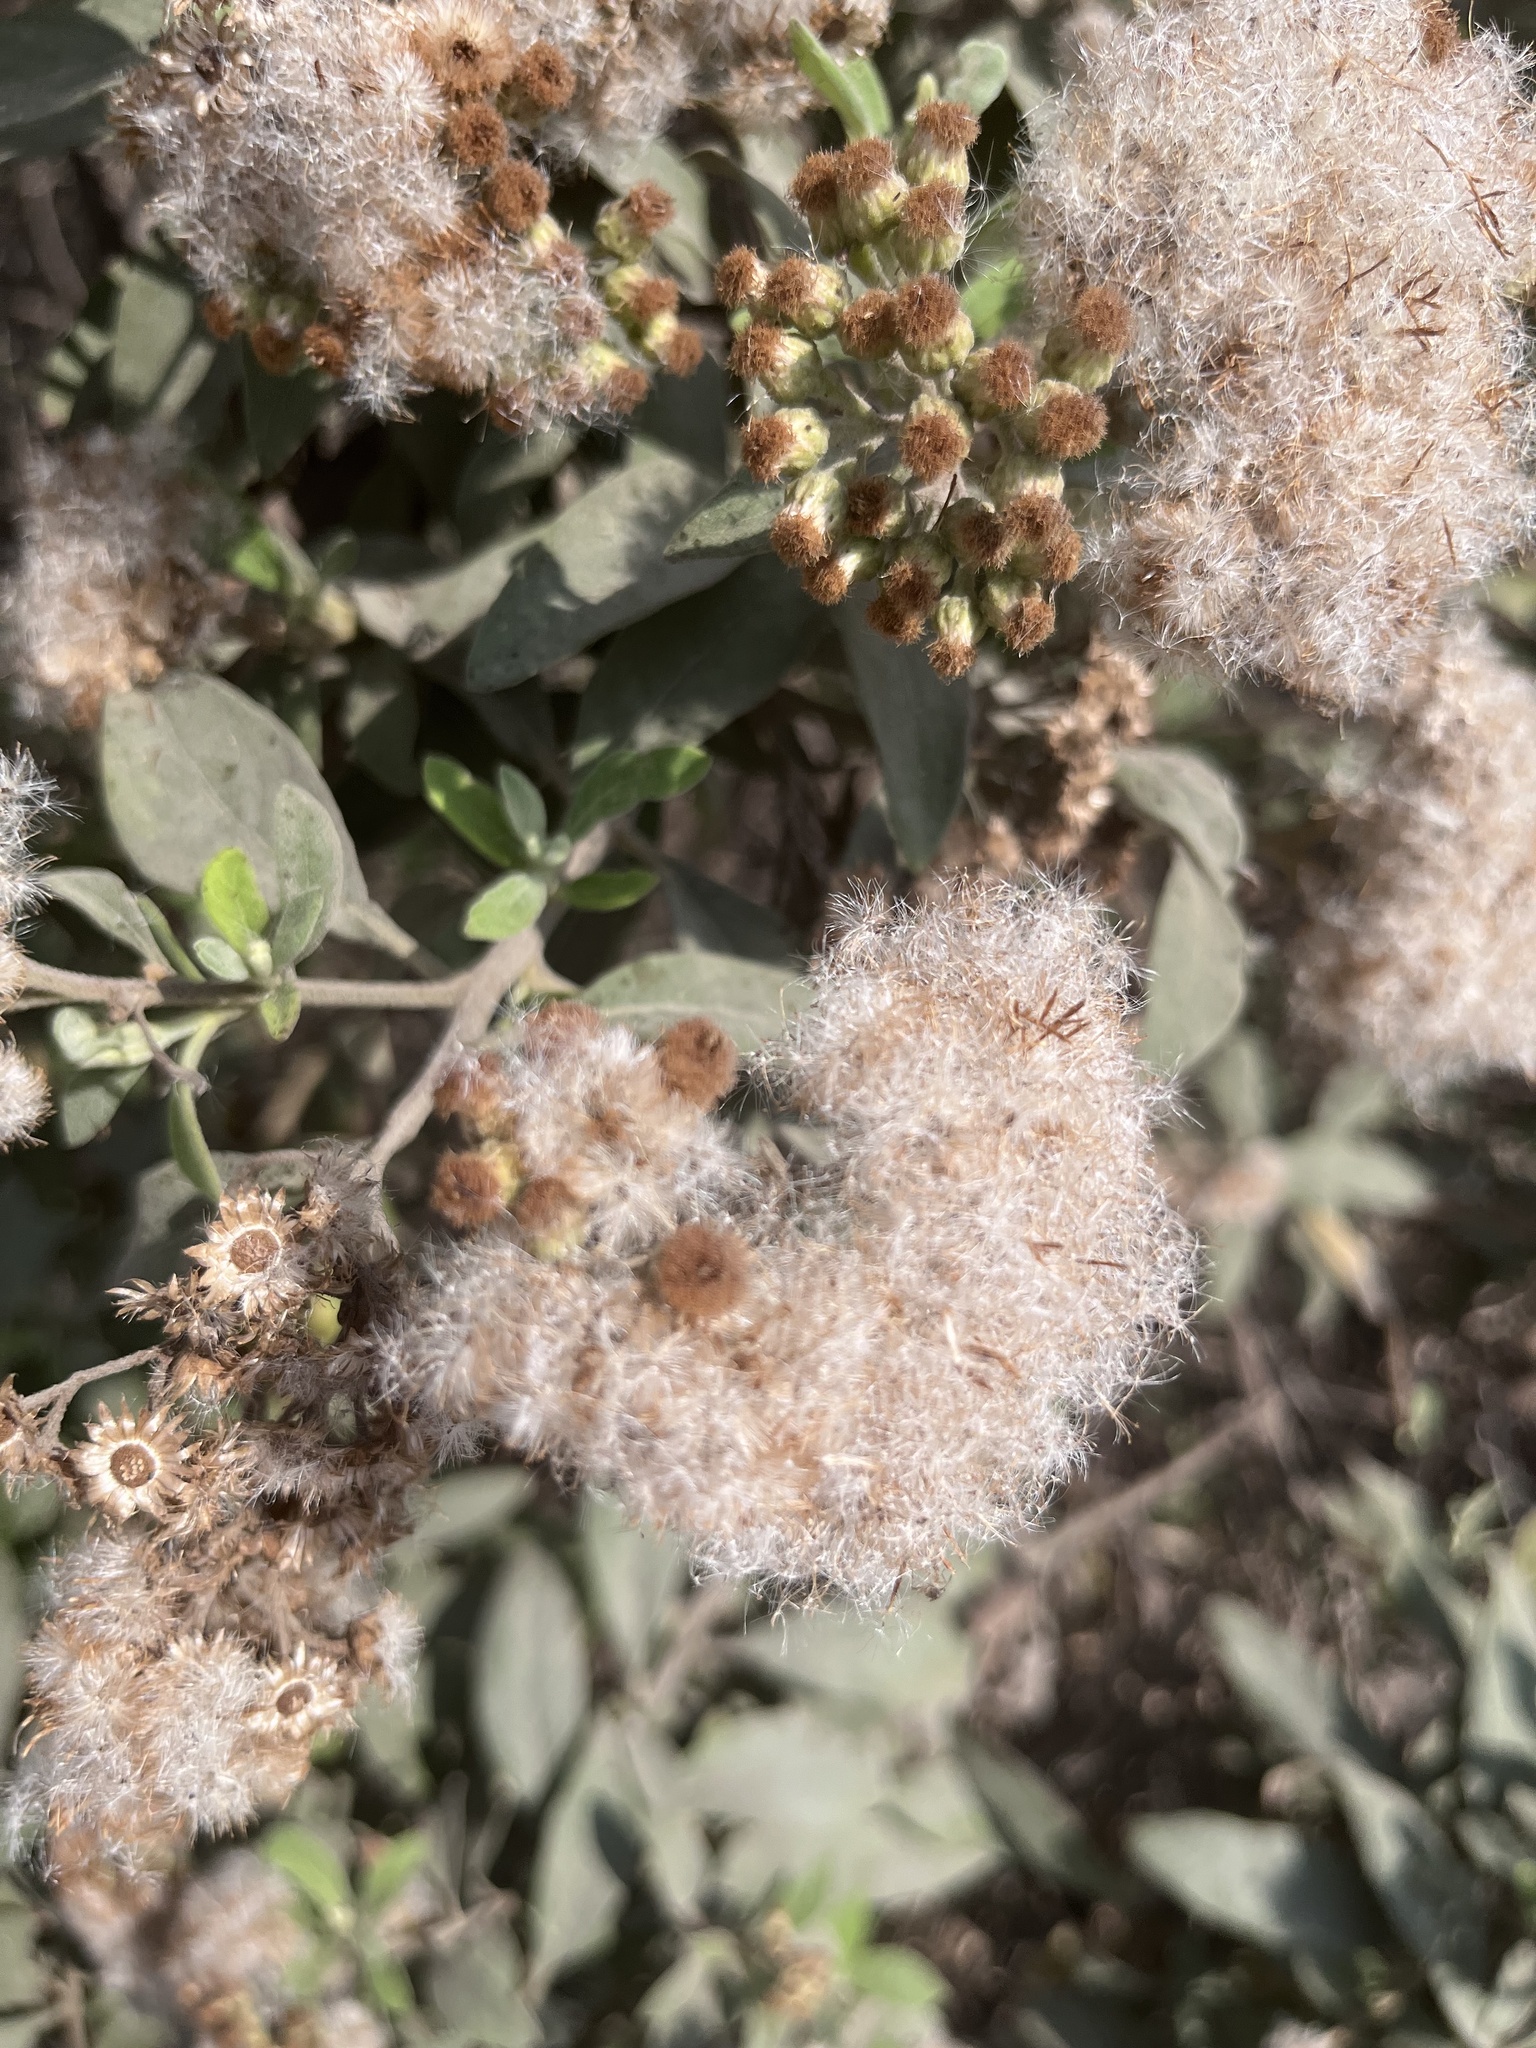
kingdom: Plantae
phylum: Tracheophyta
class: Magnoliopsida
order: Asterales
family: Asteraceae
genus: Pluchea
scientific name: Pluchea carolinensis
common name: Marsh fleabane
